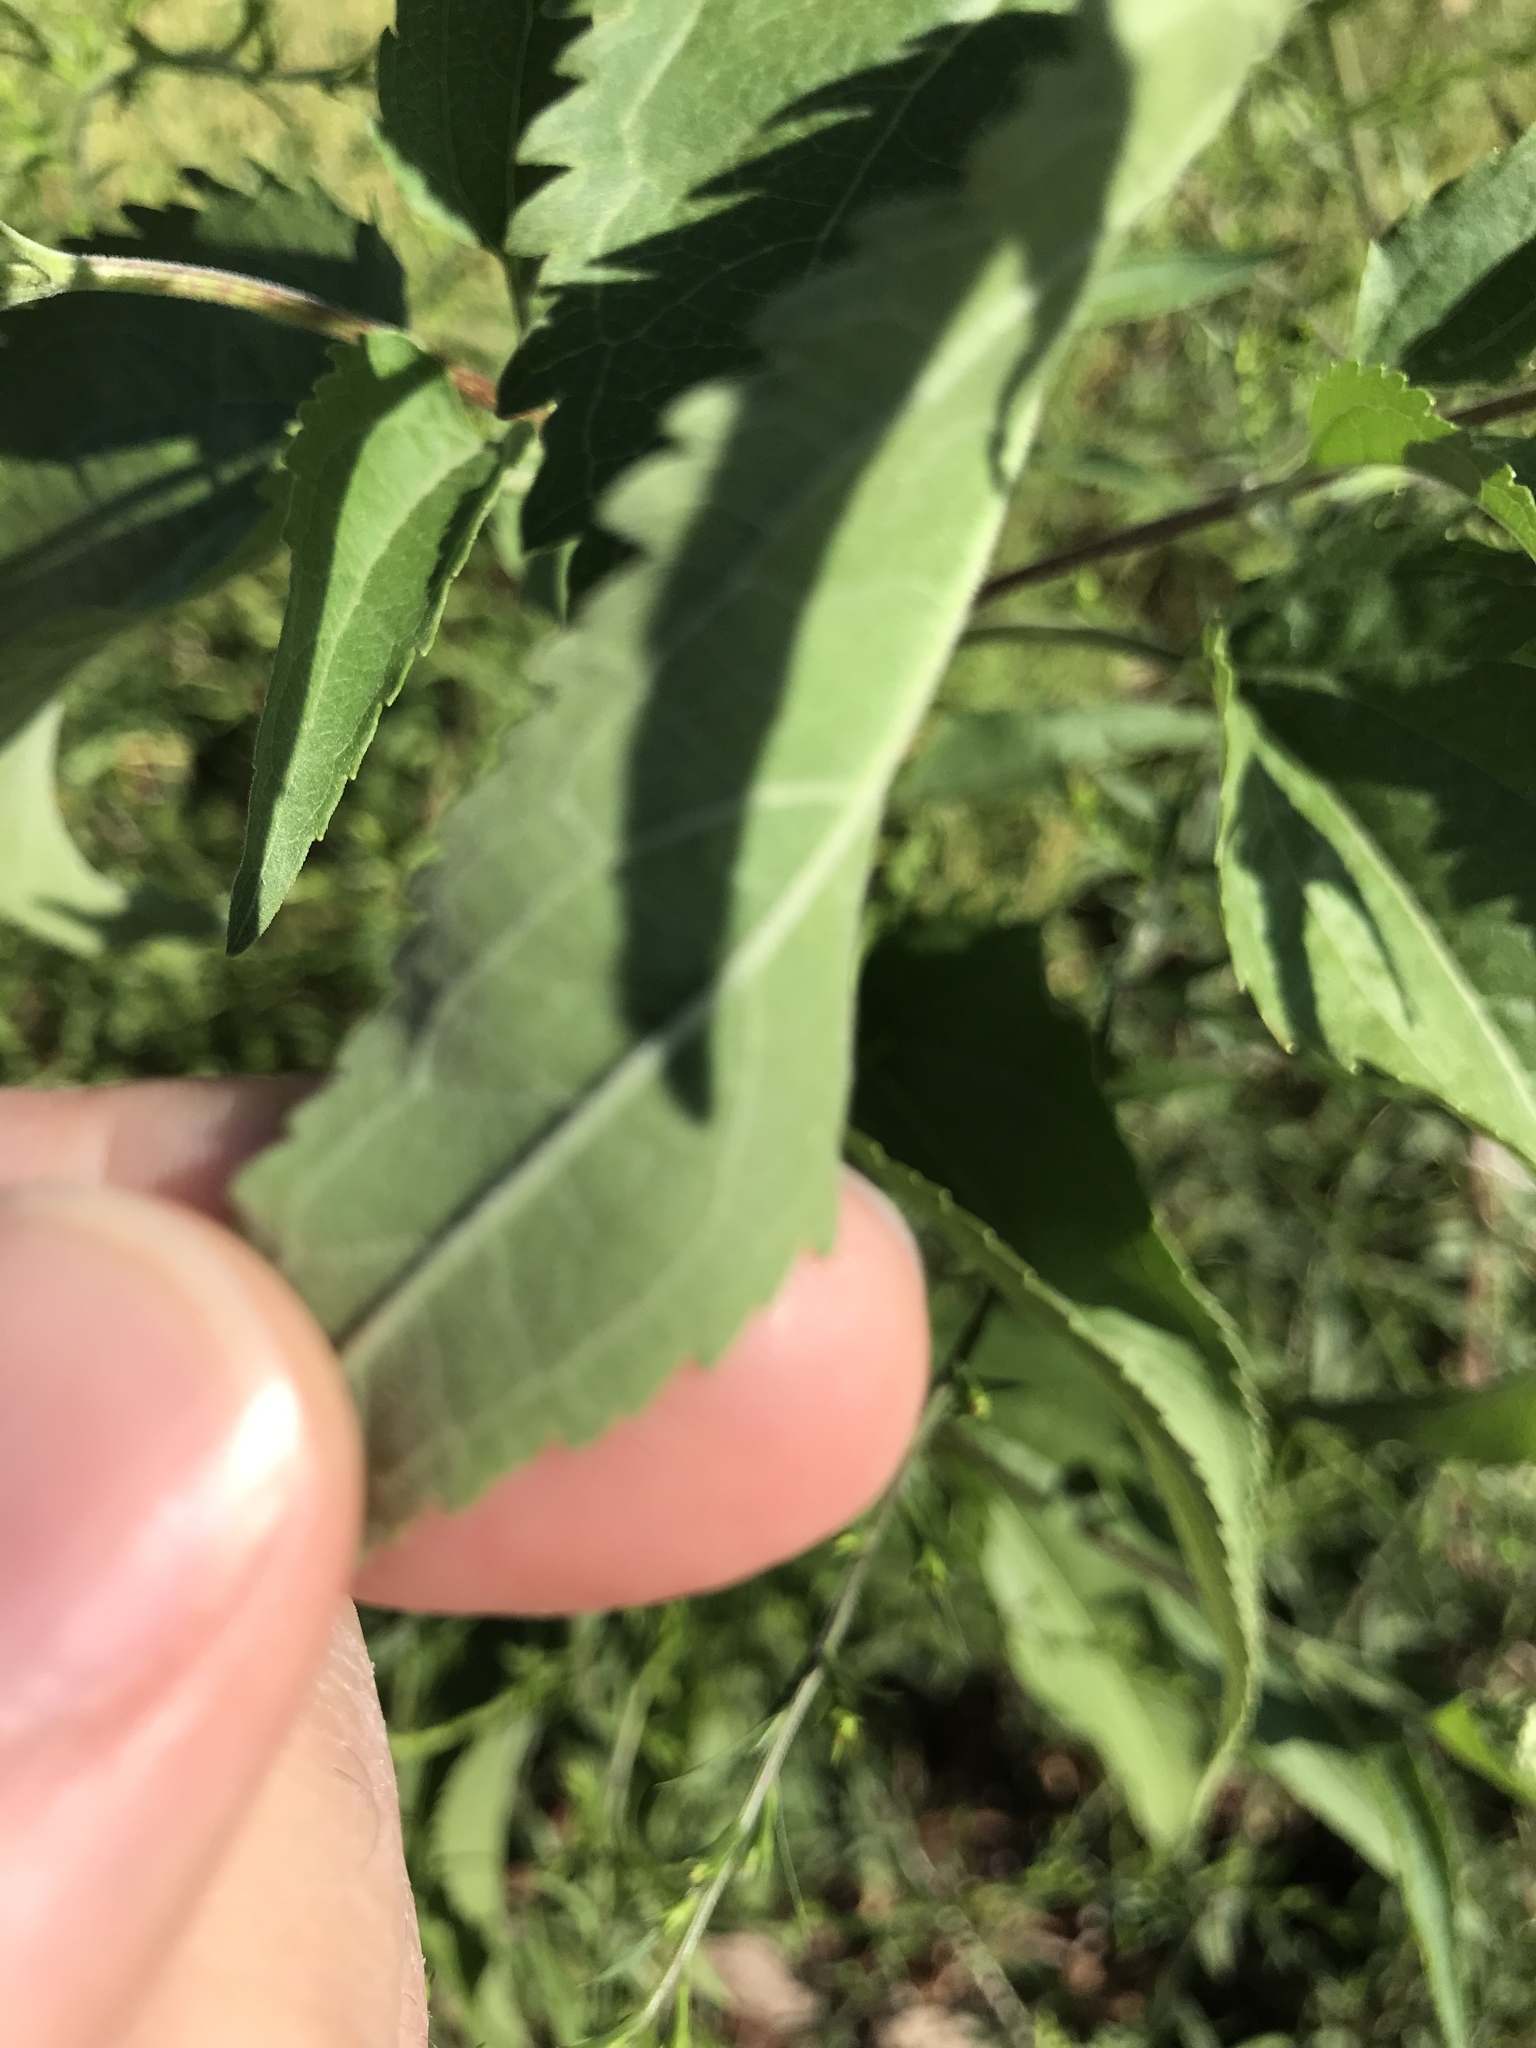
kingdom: Plantae
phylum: Tracheophyta
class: Magnoliopsida
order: Asterales
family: Asteraceae
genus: Eupatorium
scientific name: Eupatorium serotinum
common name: Late boneset
